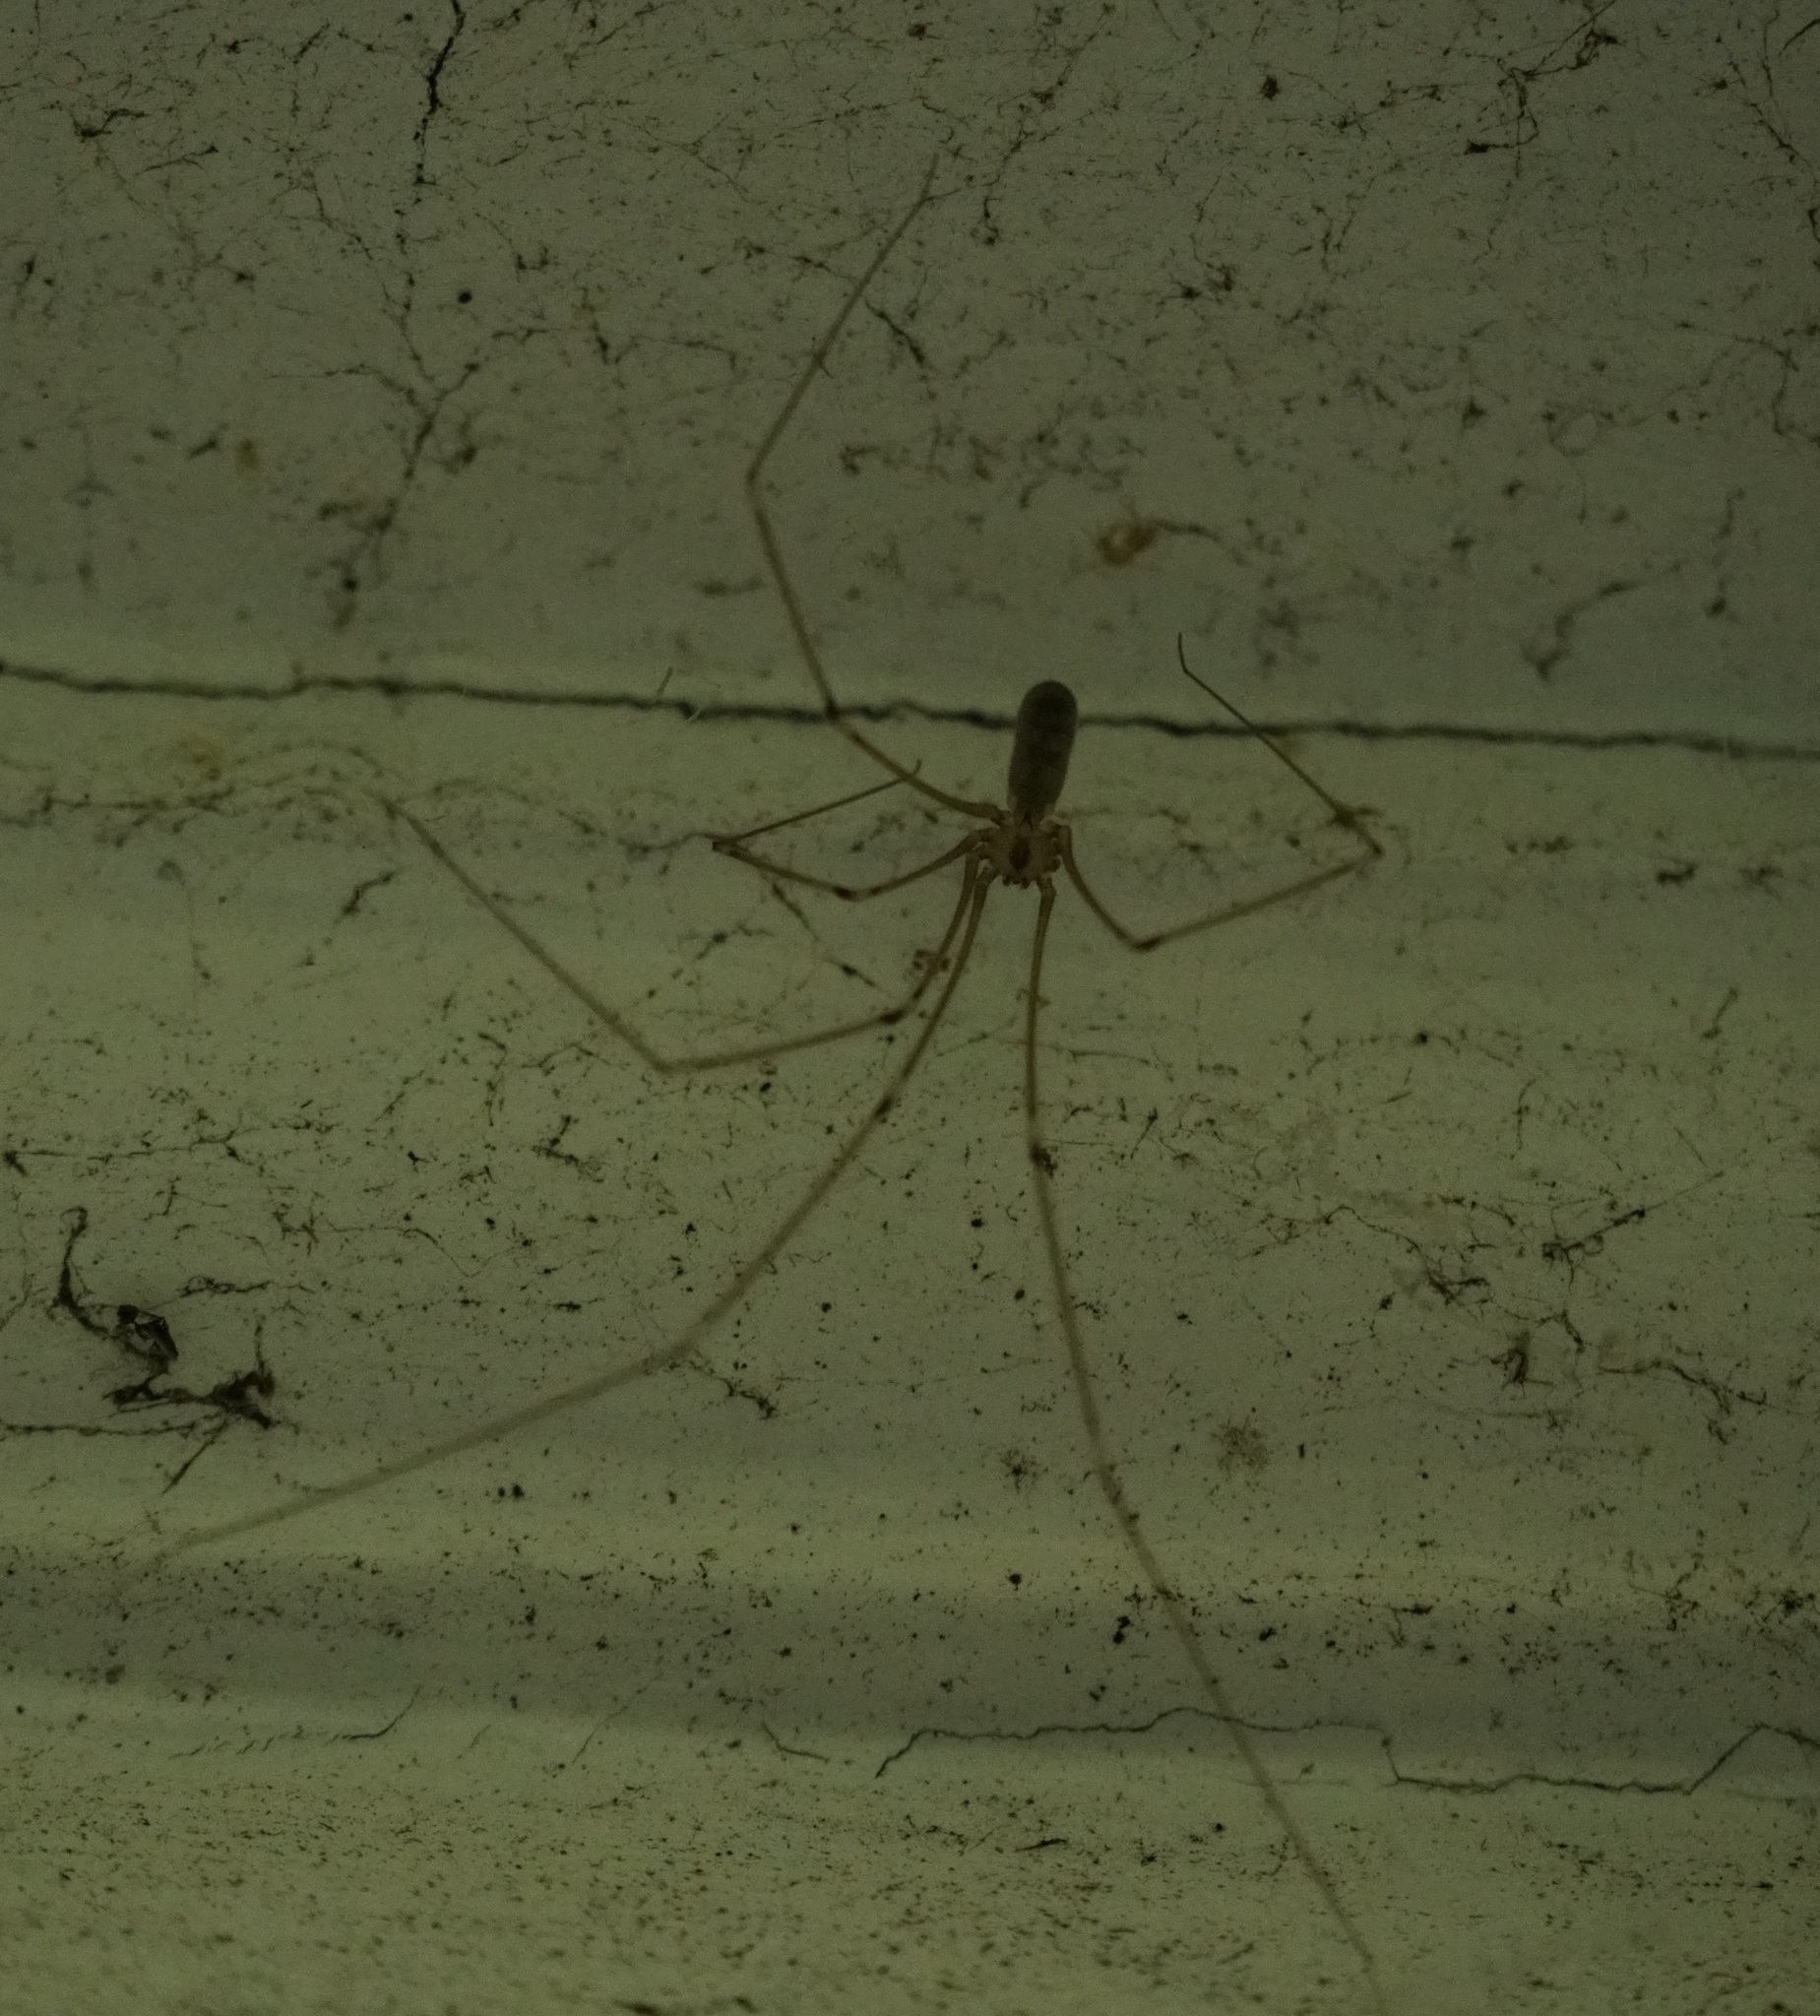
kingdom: Animalia
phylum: Arthropoda
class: Arachnida
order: Araneae
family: Pholcidae
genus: Pholcus
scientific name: Pholcus phalangioides
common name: Longbodied cellar spider
